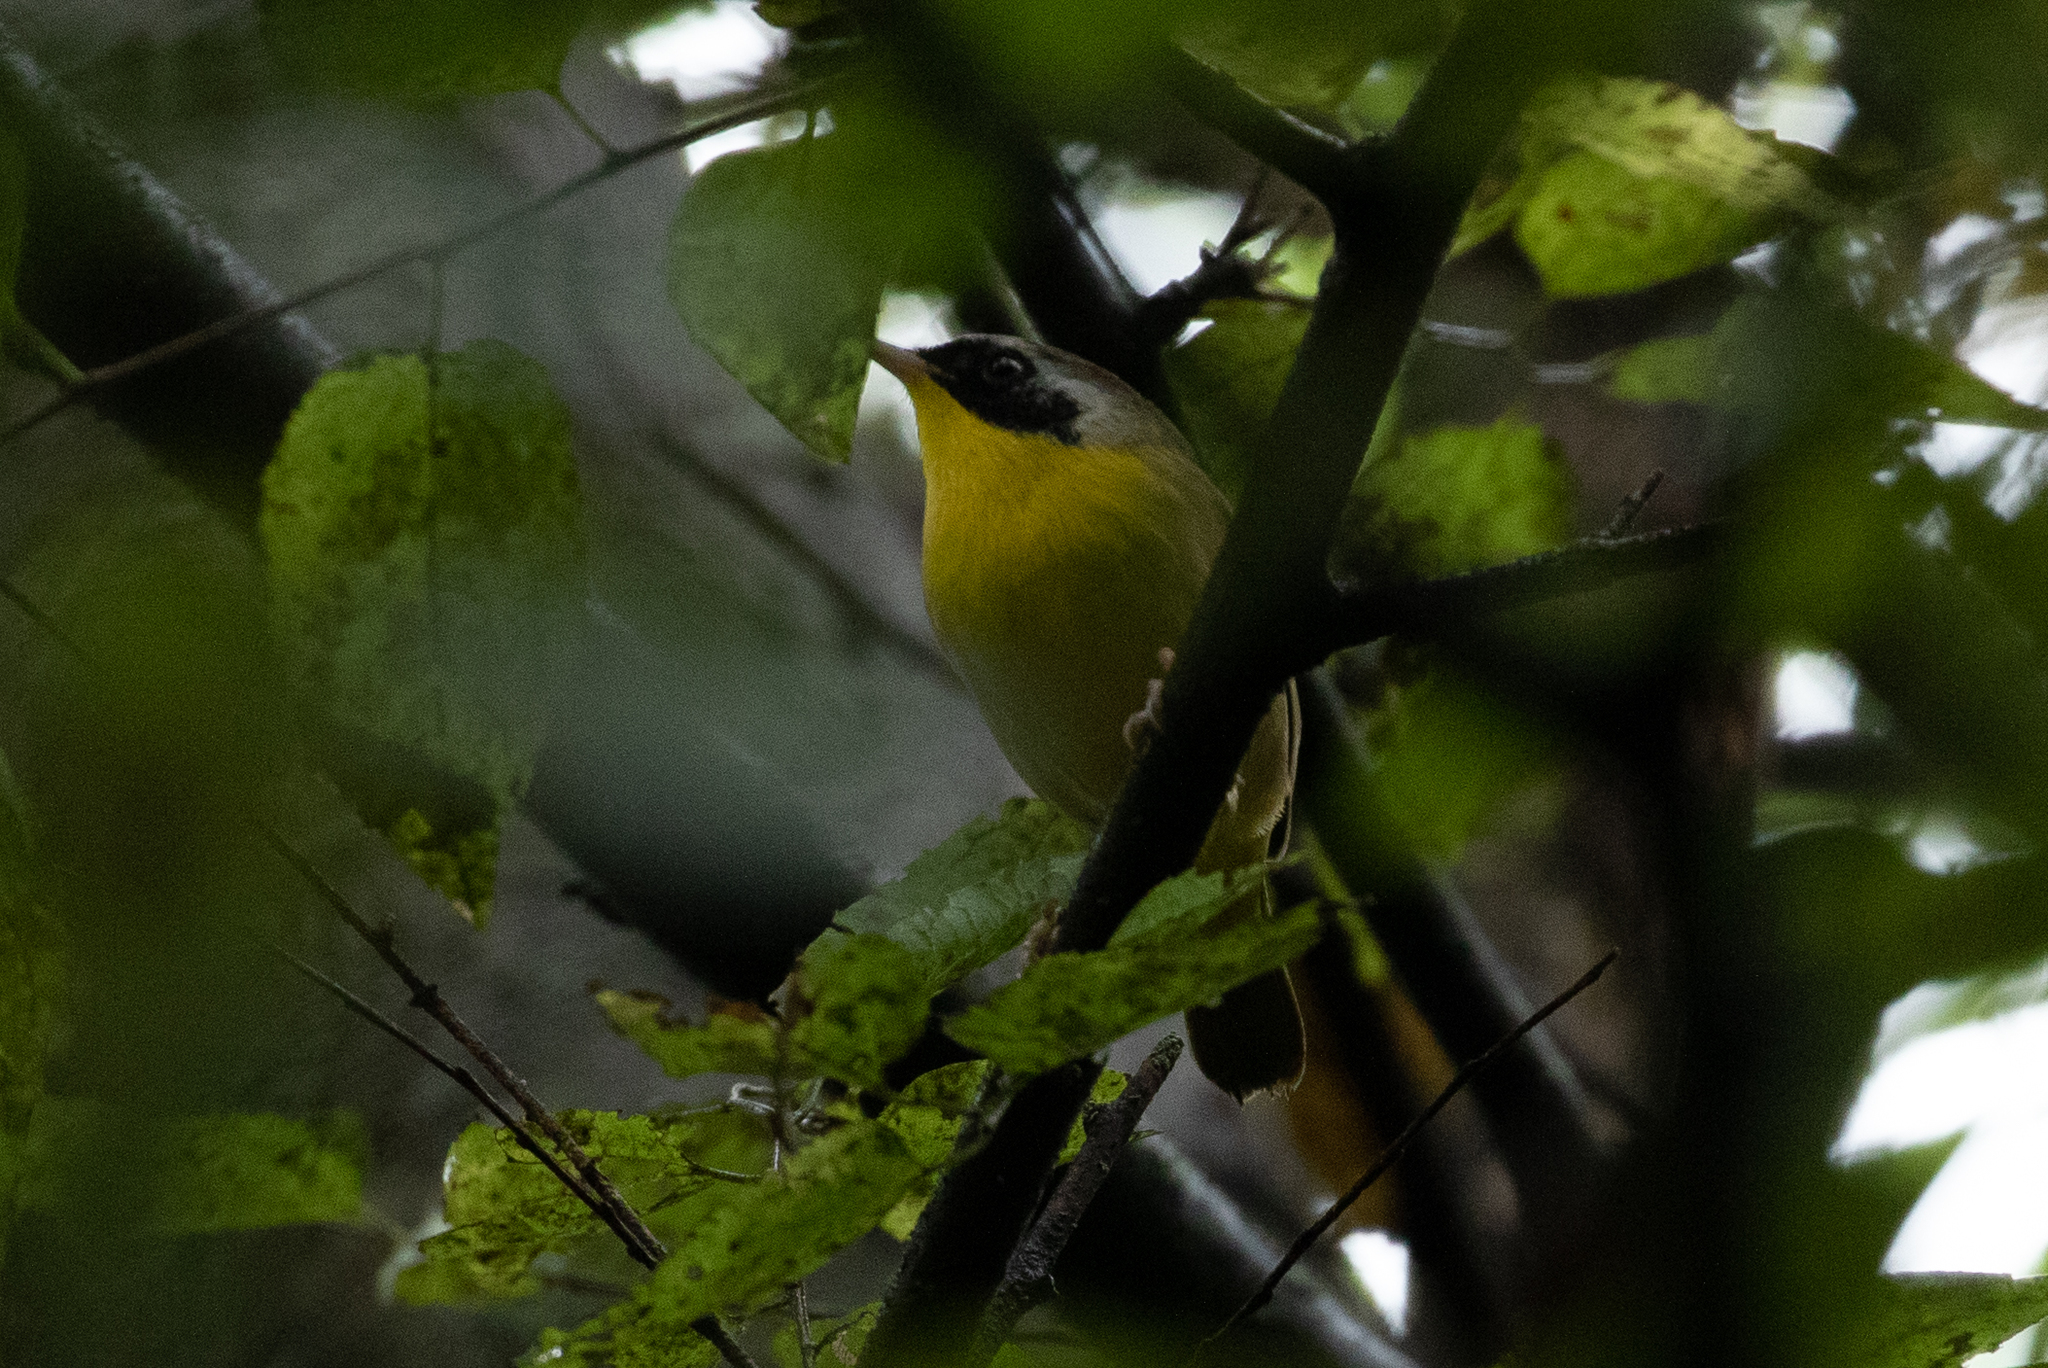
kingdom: Animalia
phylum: Chordata
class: Aves
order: Passeriformes
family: Parulidae
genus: Geothlypis
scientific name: Geothlypis trichas
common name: Common yellowthroat
